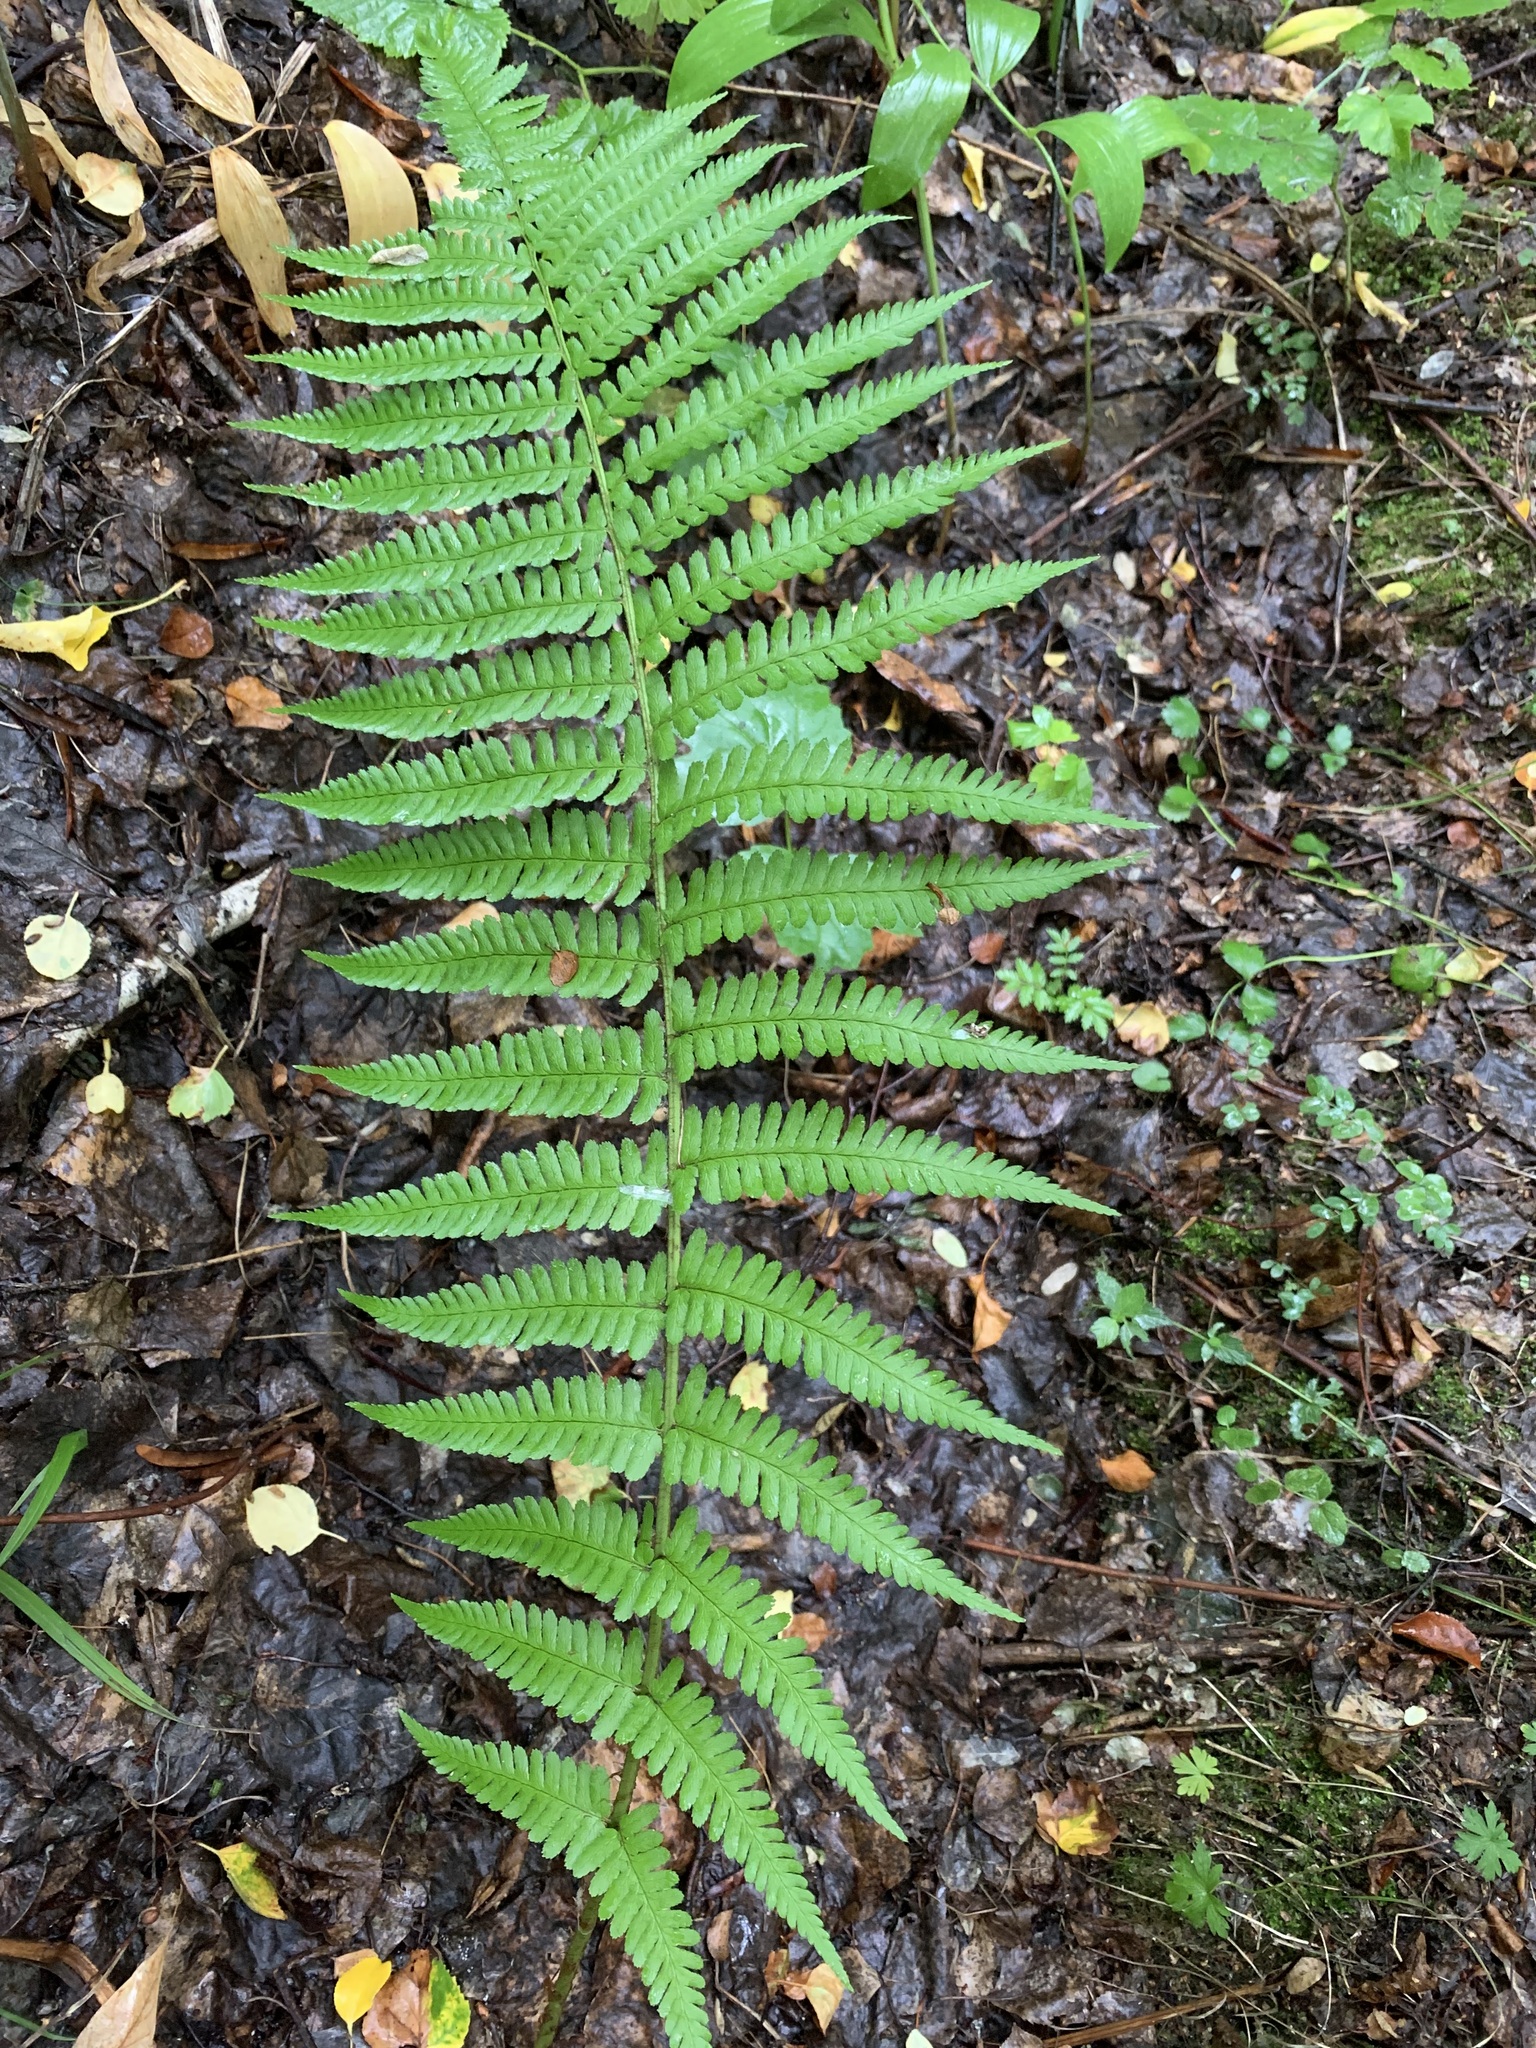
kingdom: Plantae
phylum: Tracheophyta
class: Polypodiopsida
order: Polypodiales
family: Dryopteridaceae
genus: Dryopteris
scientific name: Dryopteris filix-mas
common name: Male fern
